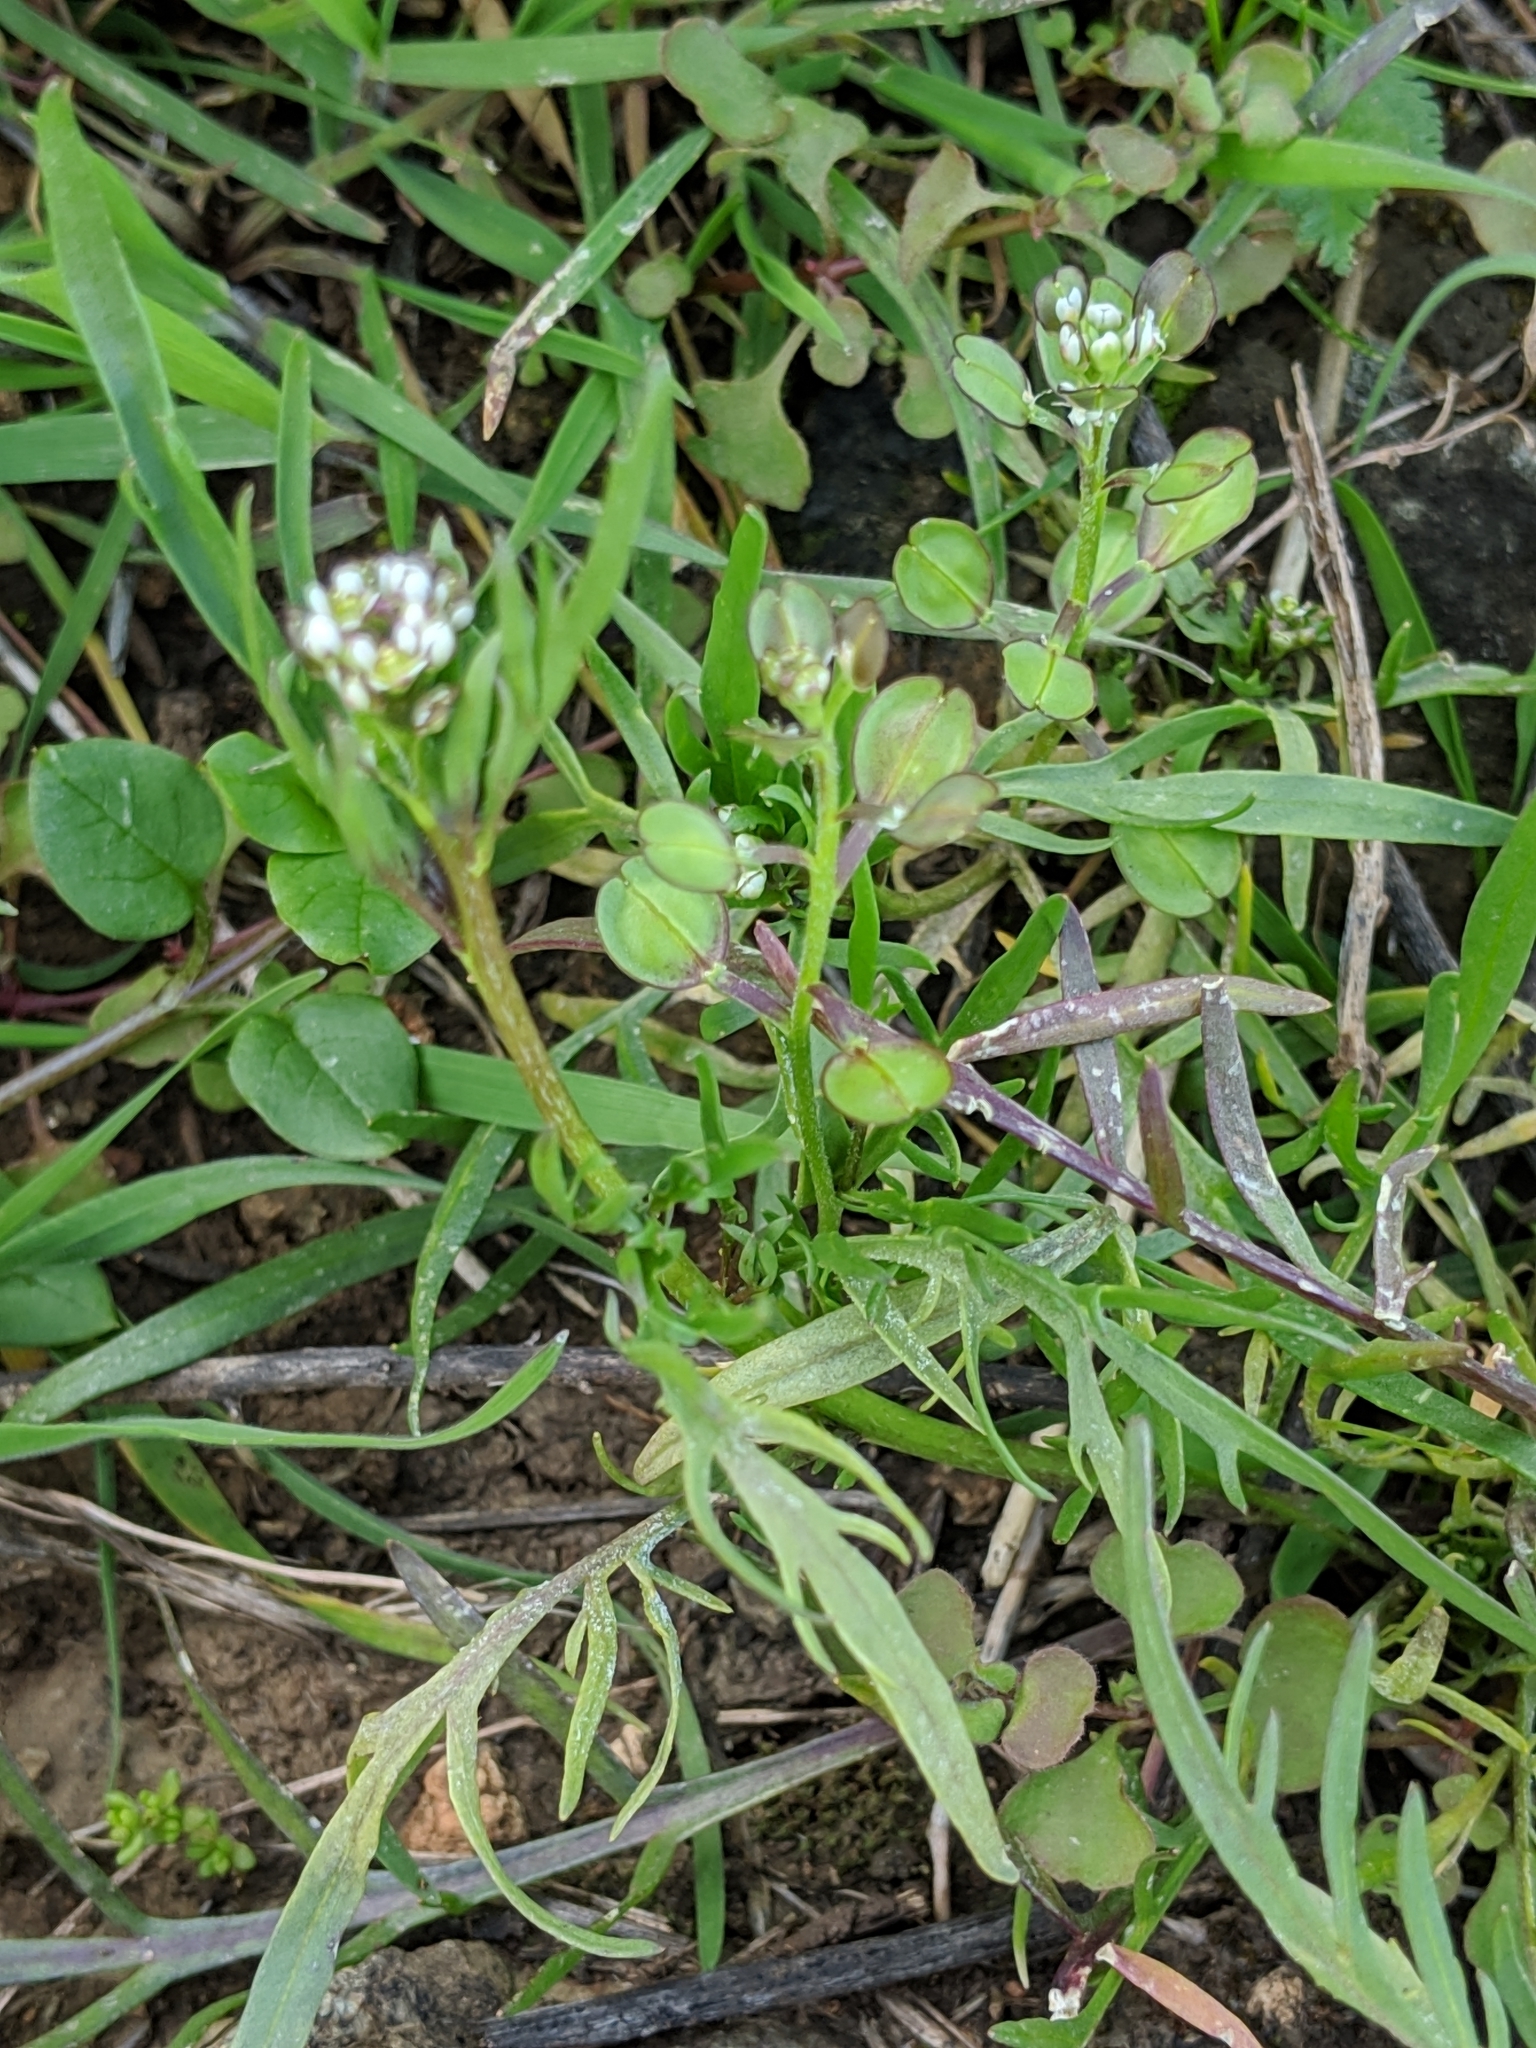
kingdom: Plantae
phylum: Tracheophyta
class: Magnoliopsida
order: Brassicales
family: Brassicaceae
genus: Lepidium
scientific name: Lepidium nitidum
